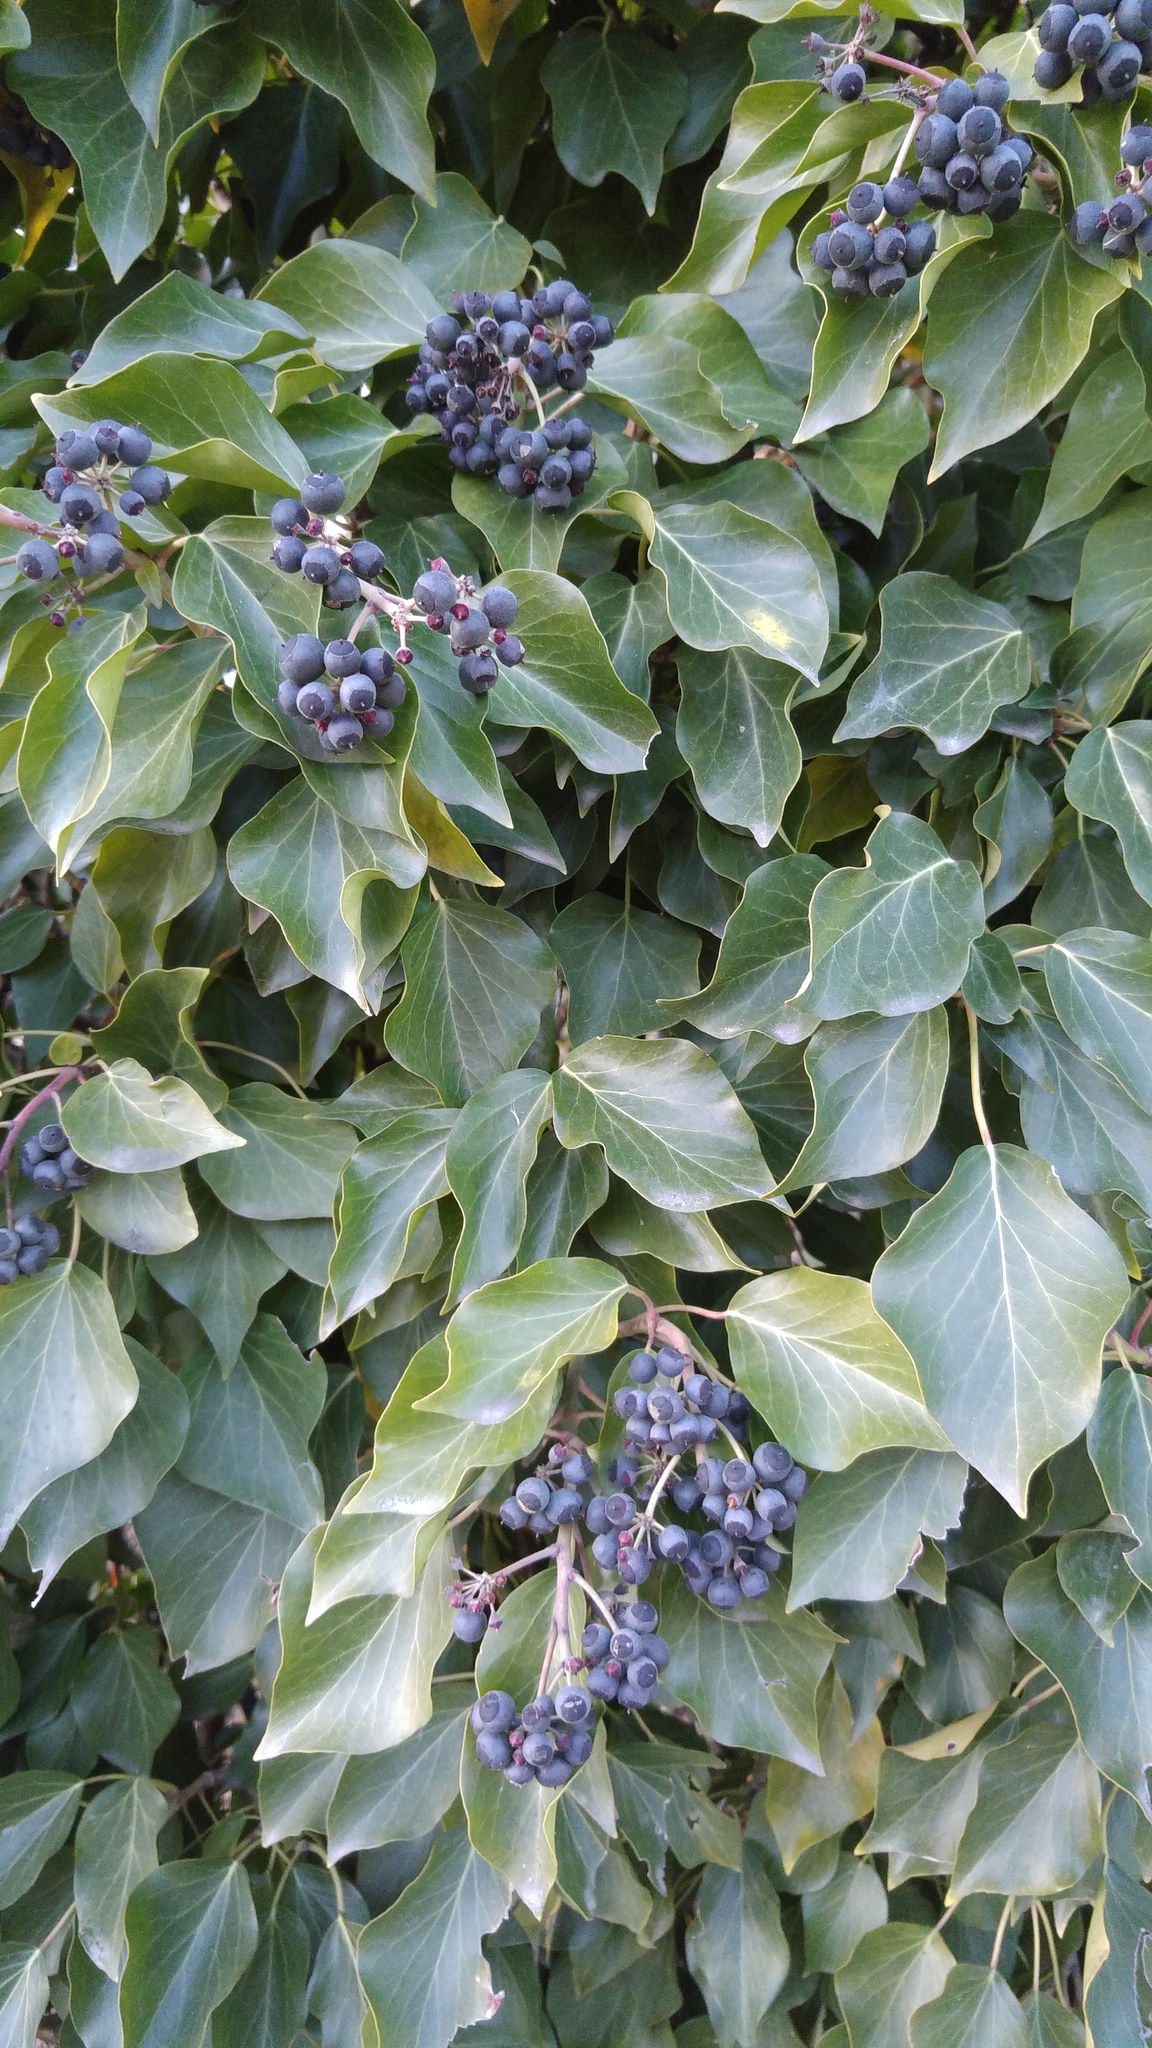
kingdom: Plantae
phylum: Tracheophyta
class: Magnoliopsida
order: Apiales
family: Araliaceae
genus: Hedera
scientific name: Hedera helix
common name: Ivy
